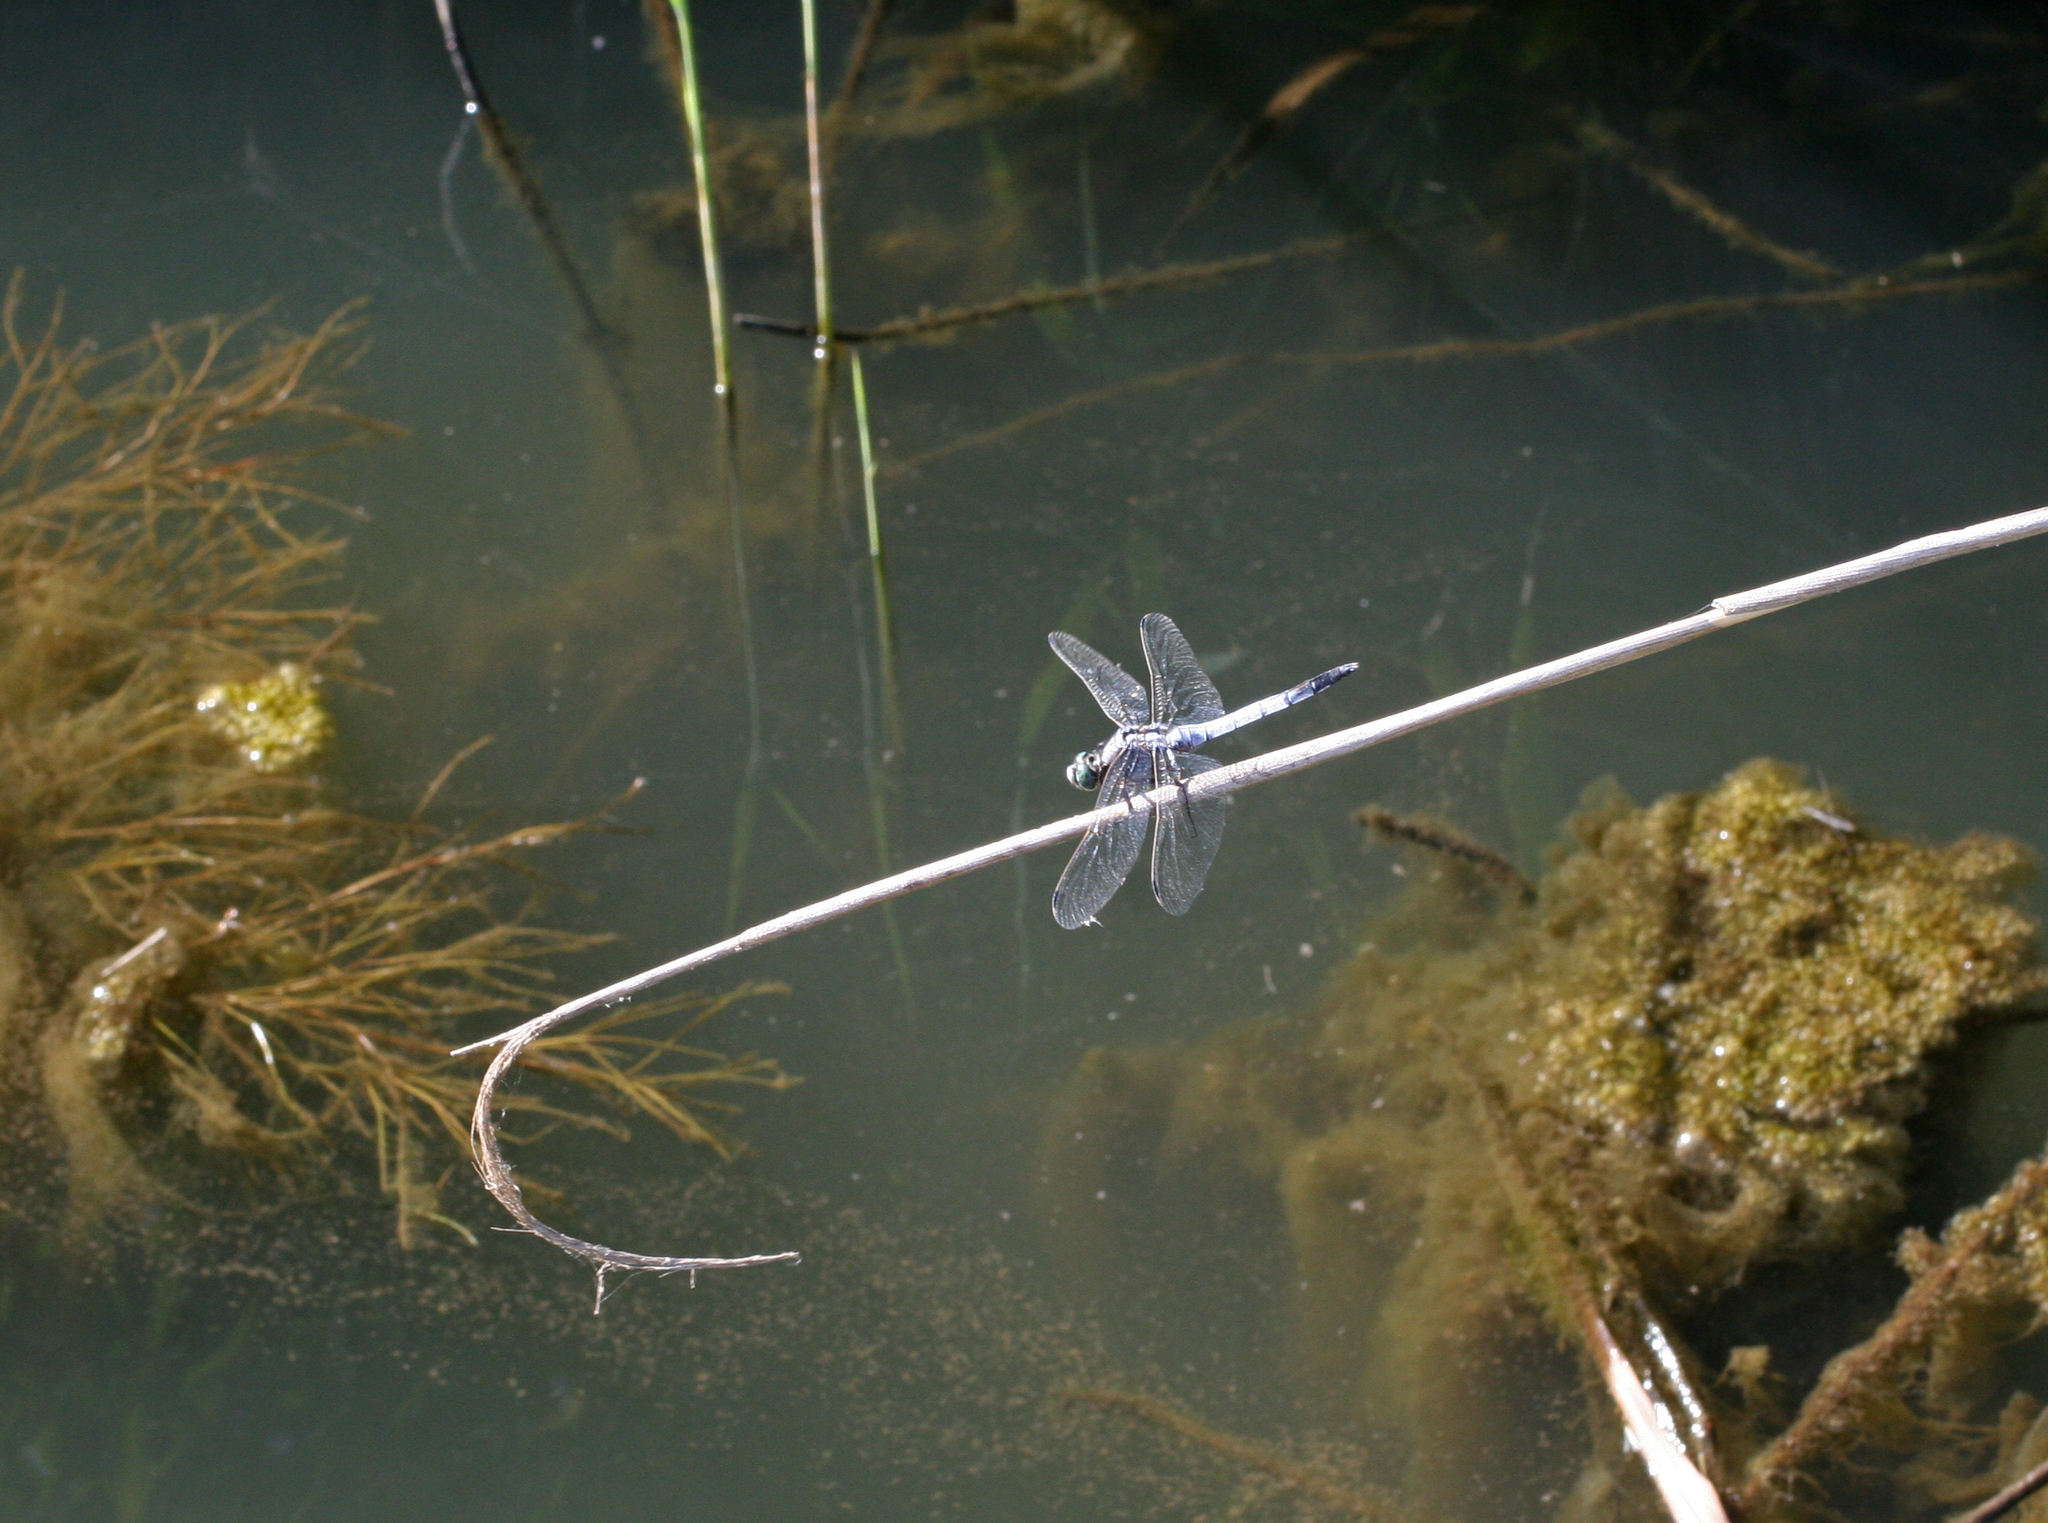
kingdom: Animalia
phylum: Arthropoda
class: Insecta
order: Odonata
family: Libellulidae
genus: Orthetrum
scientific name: Orthetrum albistylum
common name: White-tailed skimmer
